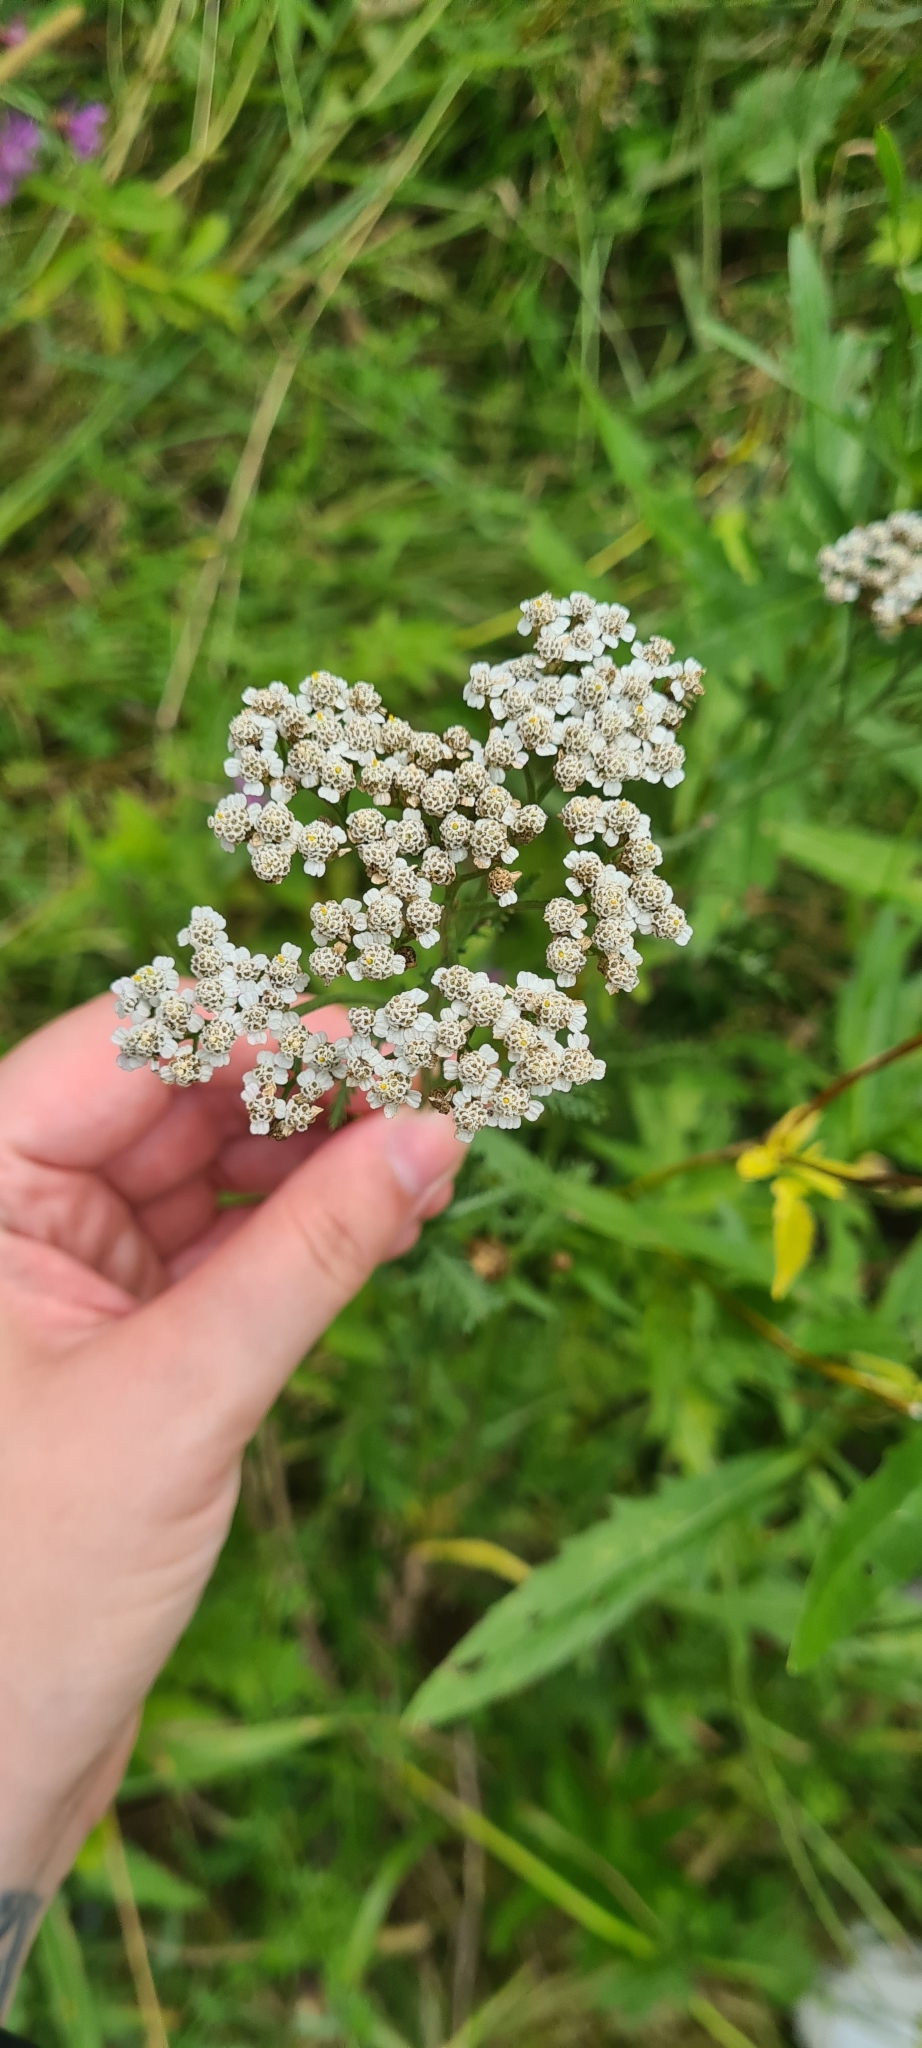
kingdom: Plantae
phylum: Tracheophyta
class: Magnoliopsida
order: Asterales
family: Asteraceae
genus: Achillea
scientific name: Achillea millefolium
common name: Yarrow
